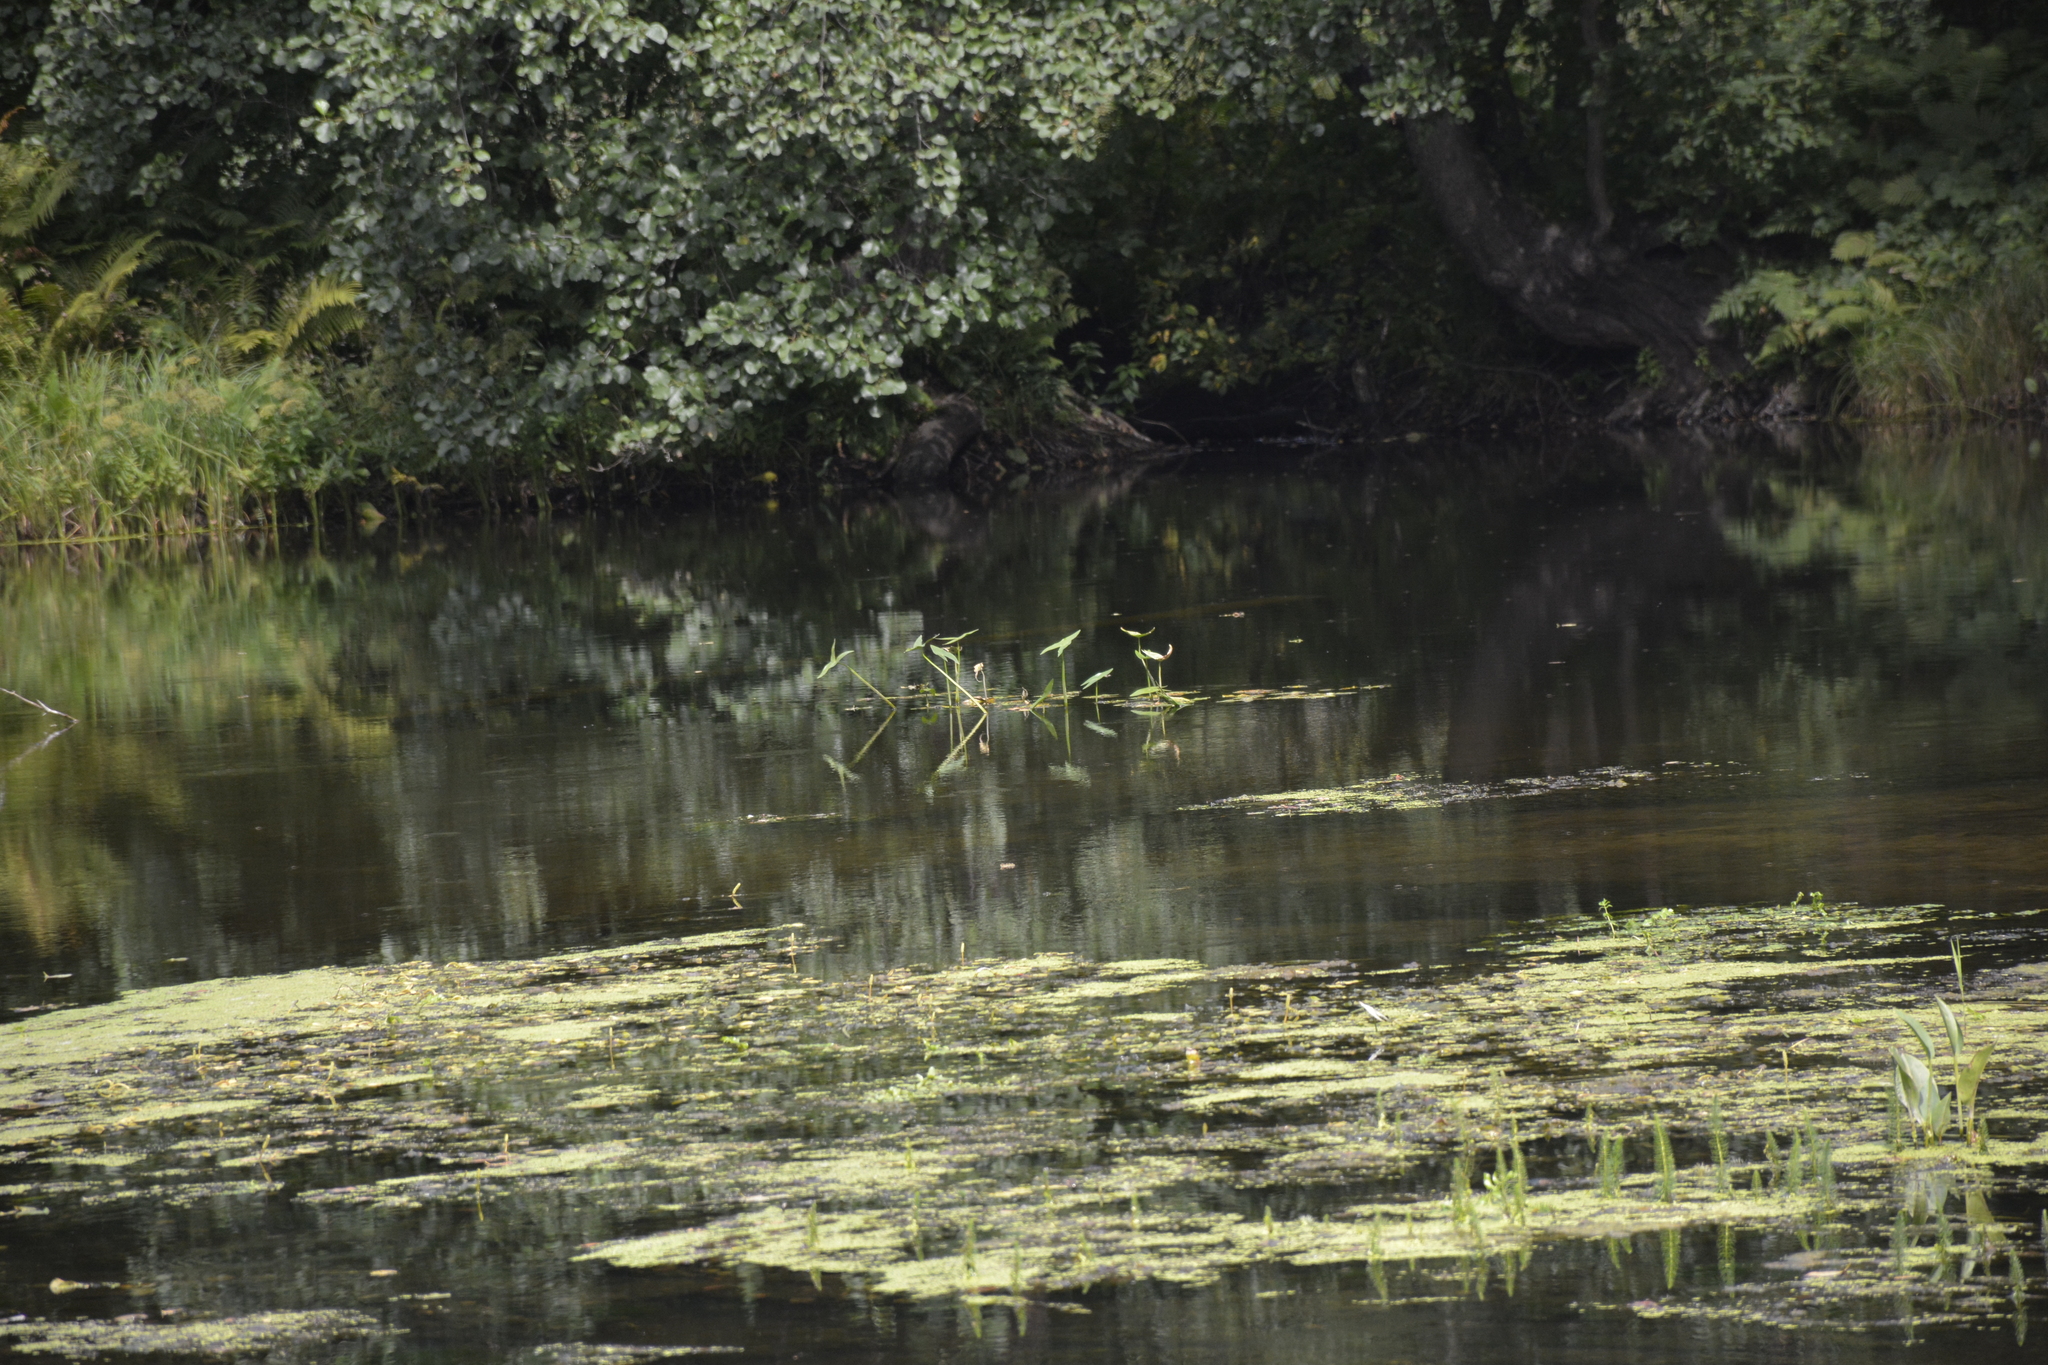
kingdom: Plantae
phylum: Tracheophyta
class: Liliopsida
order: Alismatales
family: Alismataceae
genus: Sagittaria
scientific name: Sagittaria sagittifolia
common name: Arrowhead
